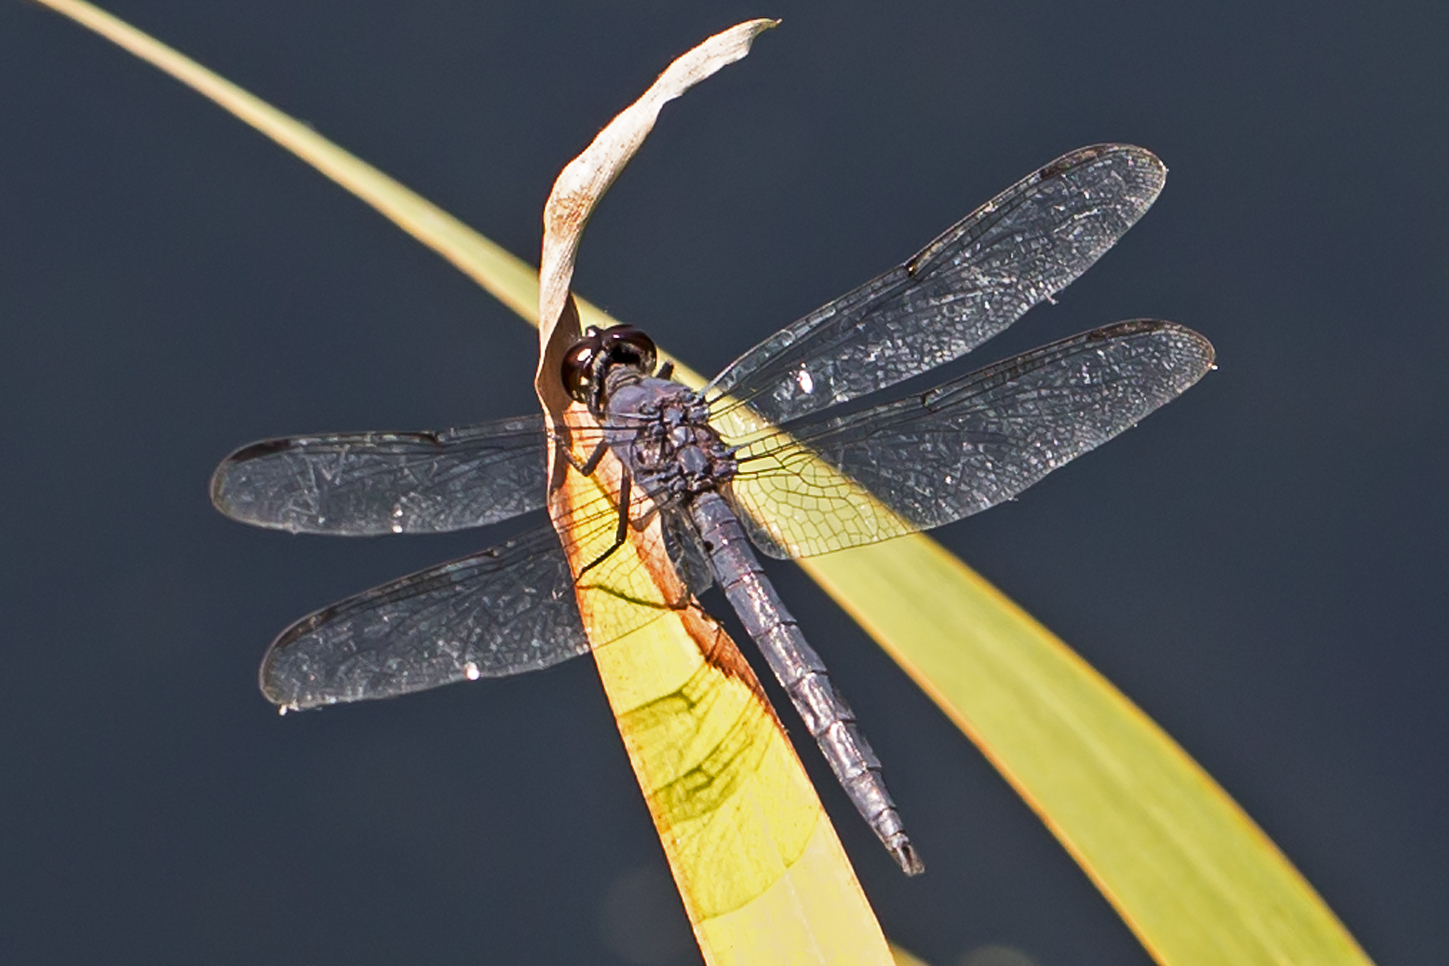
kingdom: Animalia
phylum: Arthropoda
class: Insecta
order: Odonata
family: Libellulidae
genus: Libellula
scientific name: Libellula incesta
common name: Slaty skimmer
